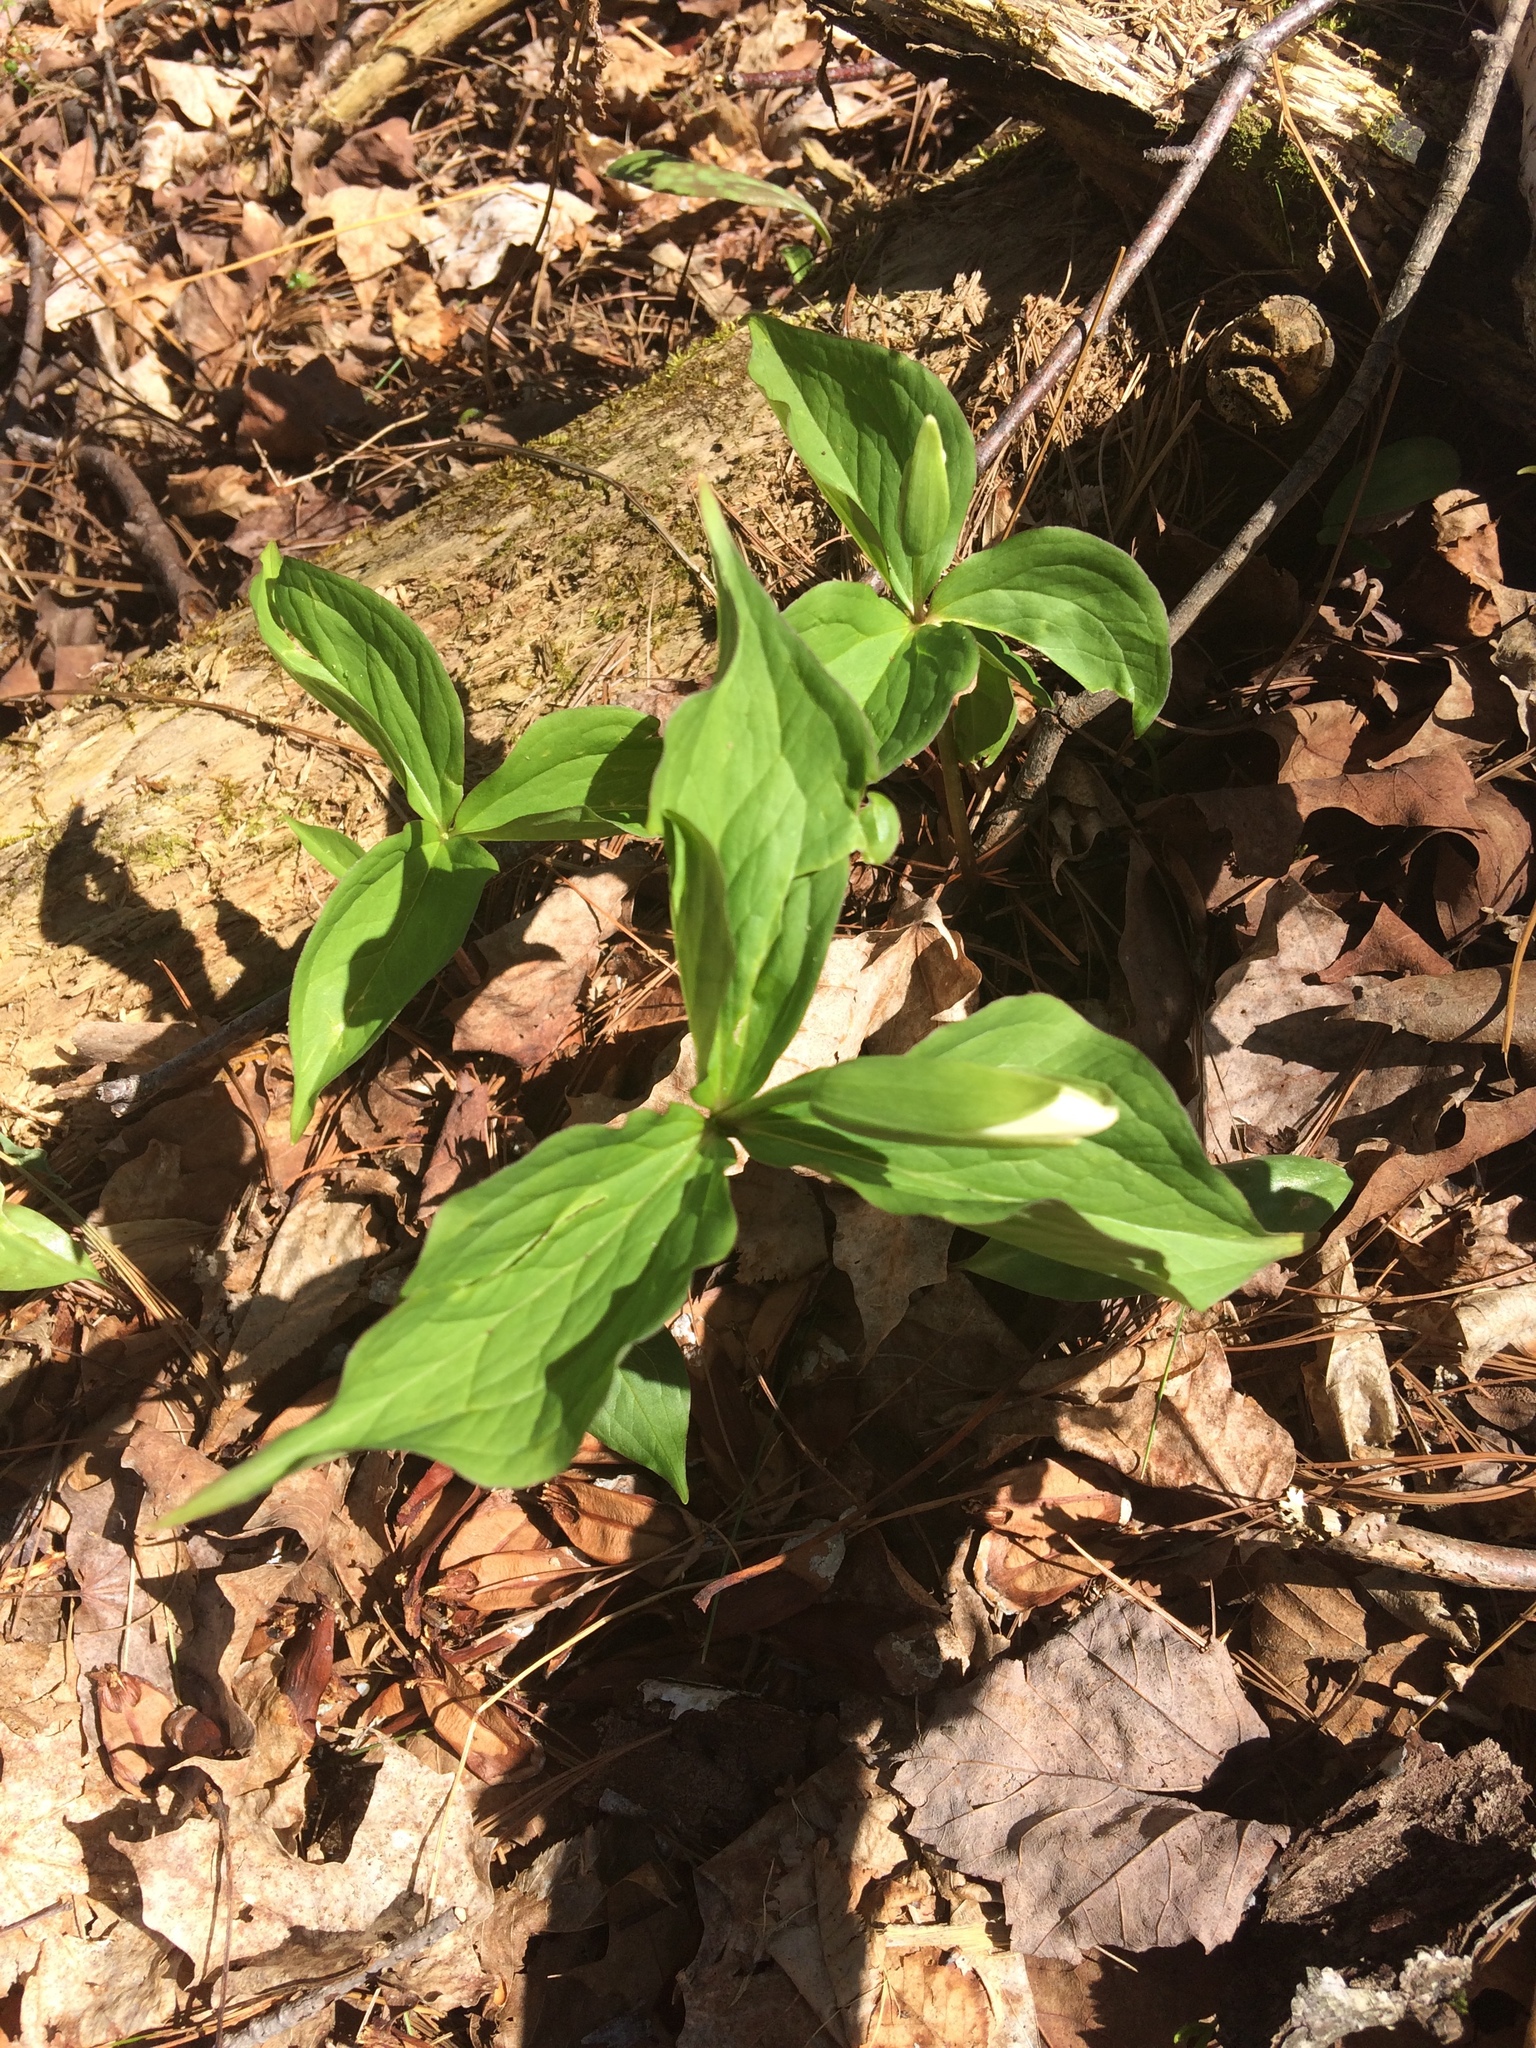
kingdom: Plantae
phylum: Tracheophyta
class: Liliopsida
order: Liliales
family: Melanthiaceae
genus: Trillium
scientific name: Trillium grandiflorum
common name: Great white trillium
